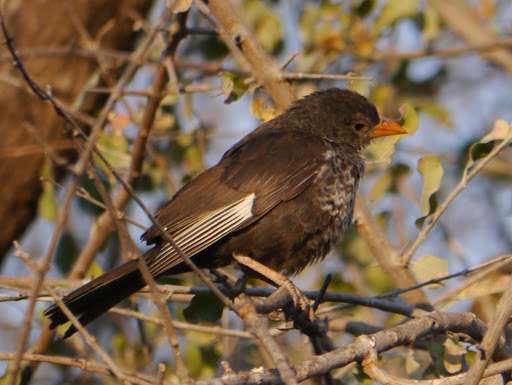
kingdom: Animalia
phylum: Chordata
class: Aves
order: Passeriformes
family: Ploceidae
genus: Bubalornis
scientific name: Bubalornis niger
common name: Red-billed buffalo weaver
